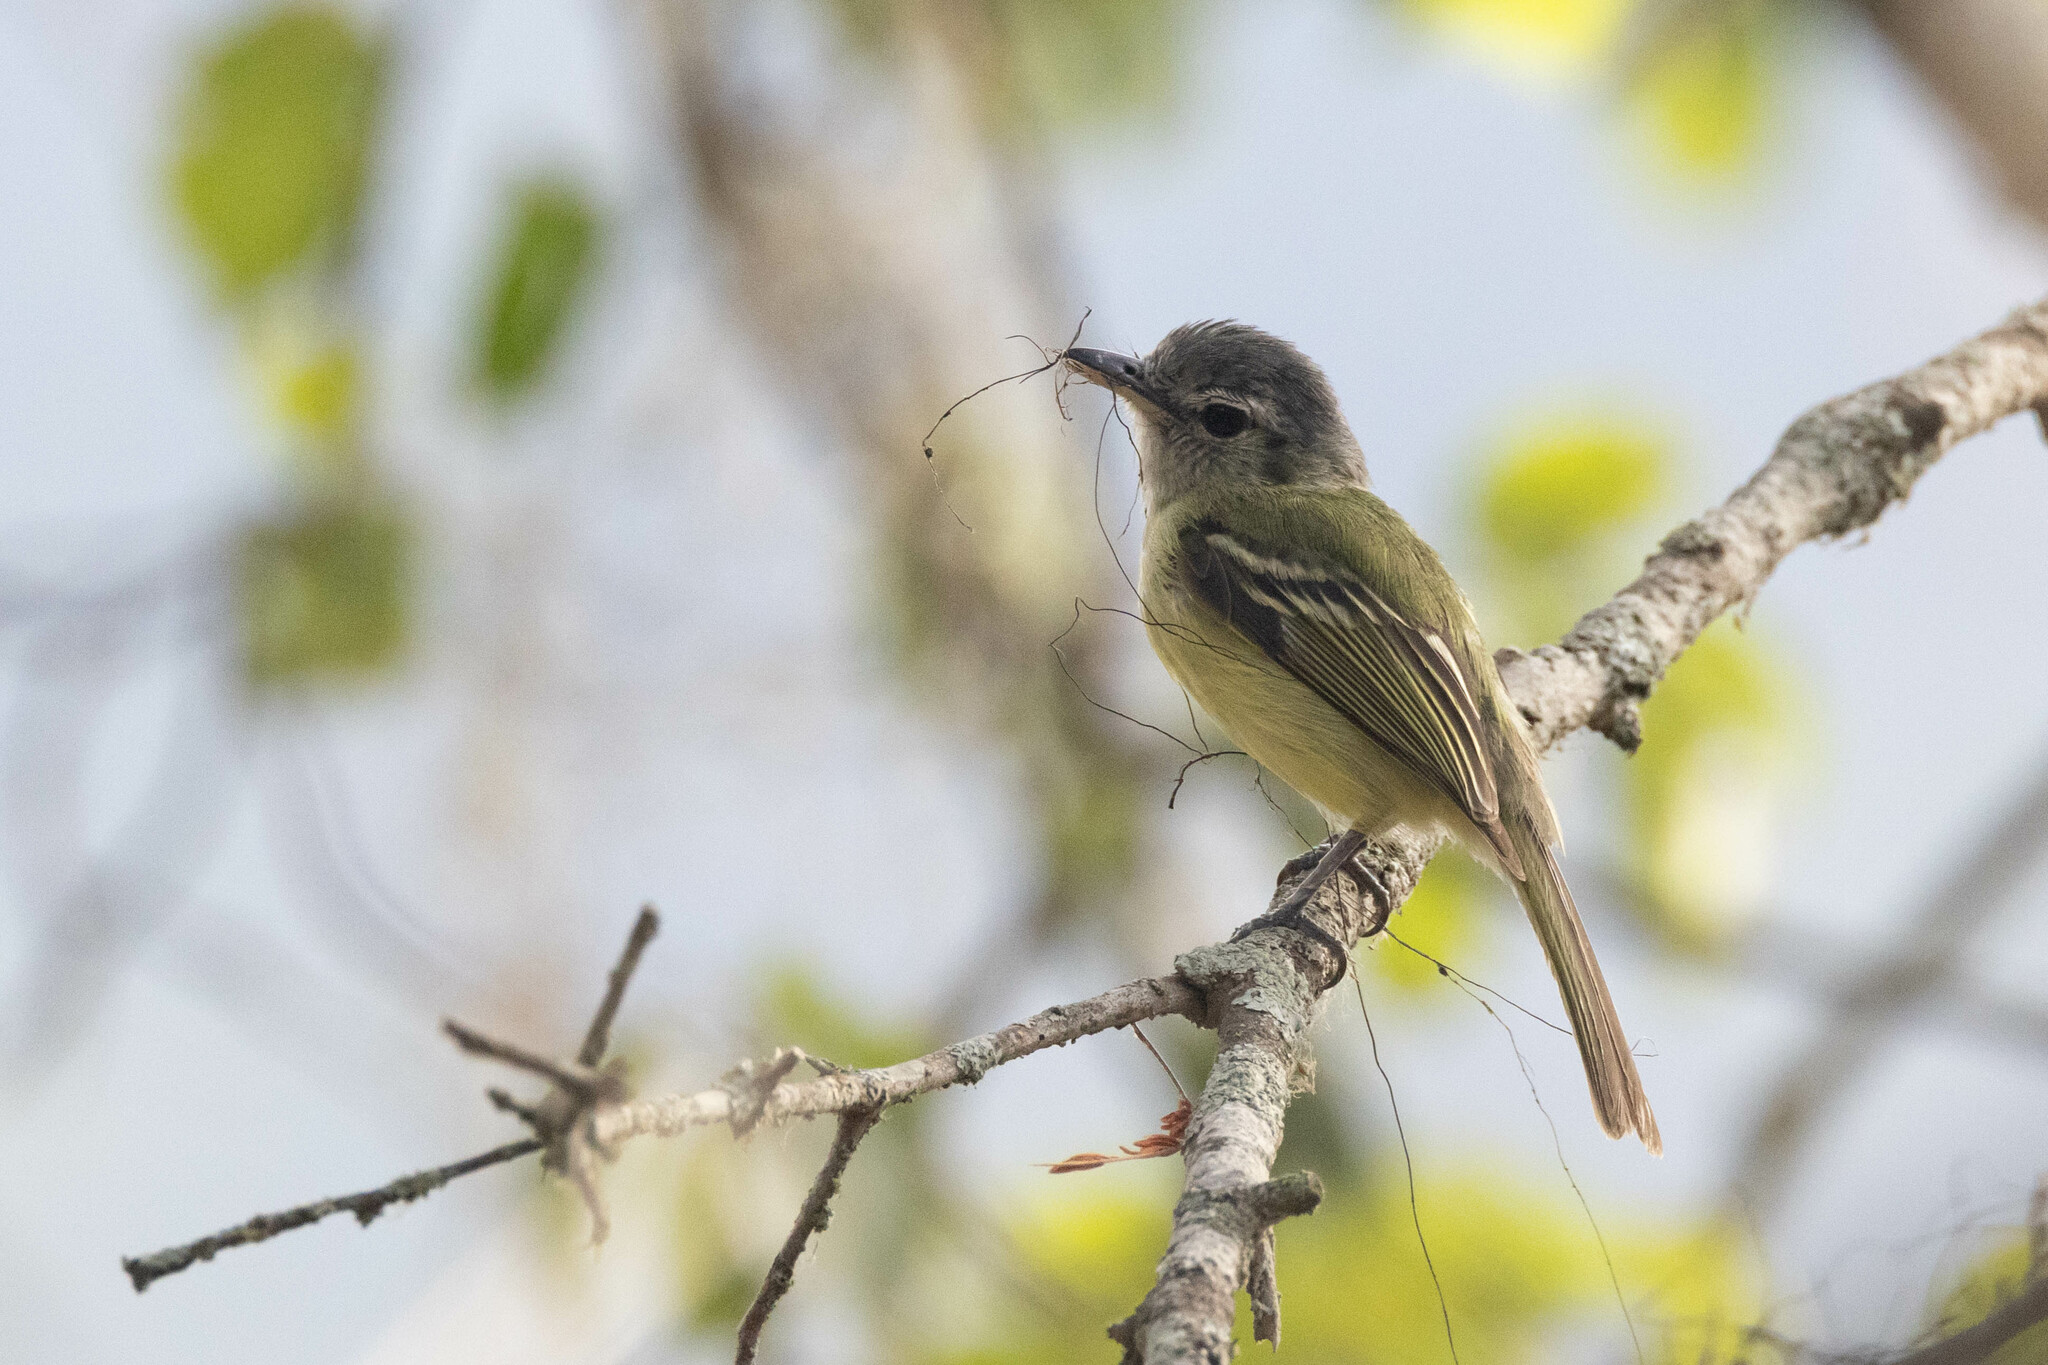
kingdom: Animalia
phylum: Chordata
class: Aves
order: Passeriformes
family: Tyrannidae
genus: Tolmomyias
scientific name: Tolmomyias sulphurescens
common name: Yellow-olive flycatcher
